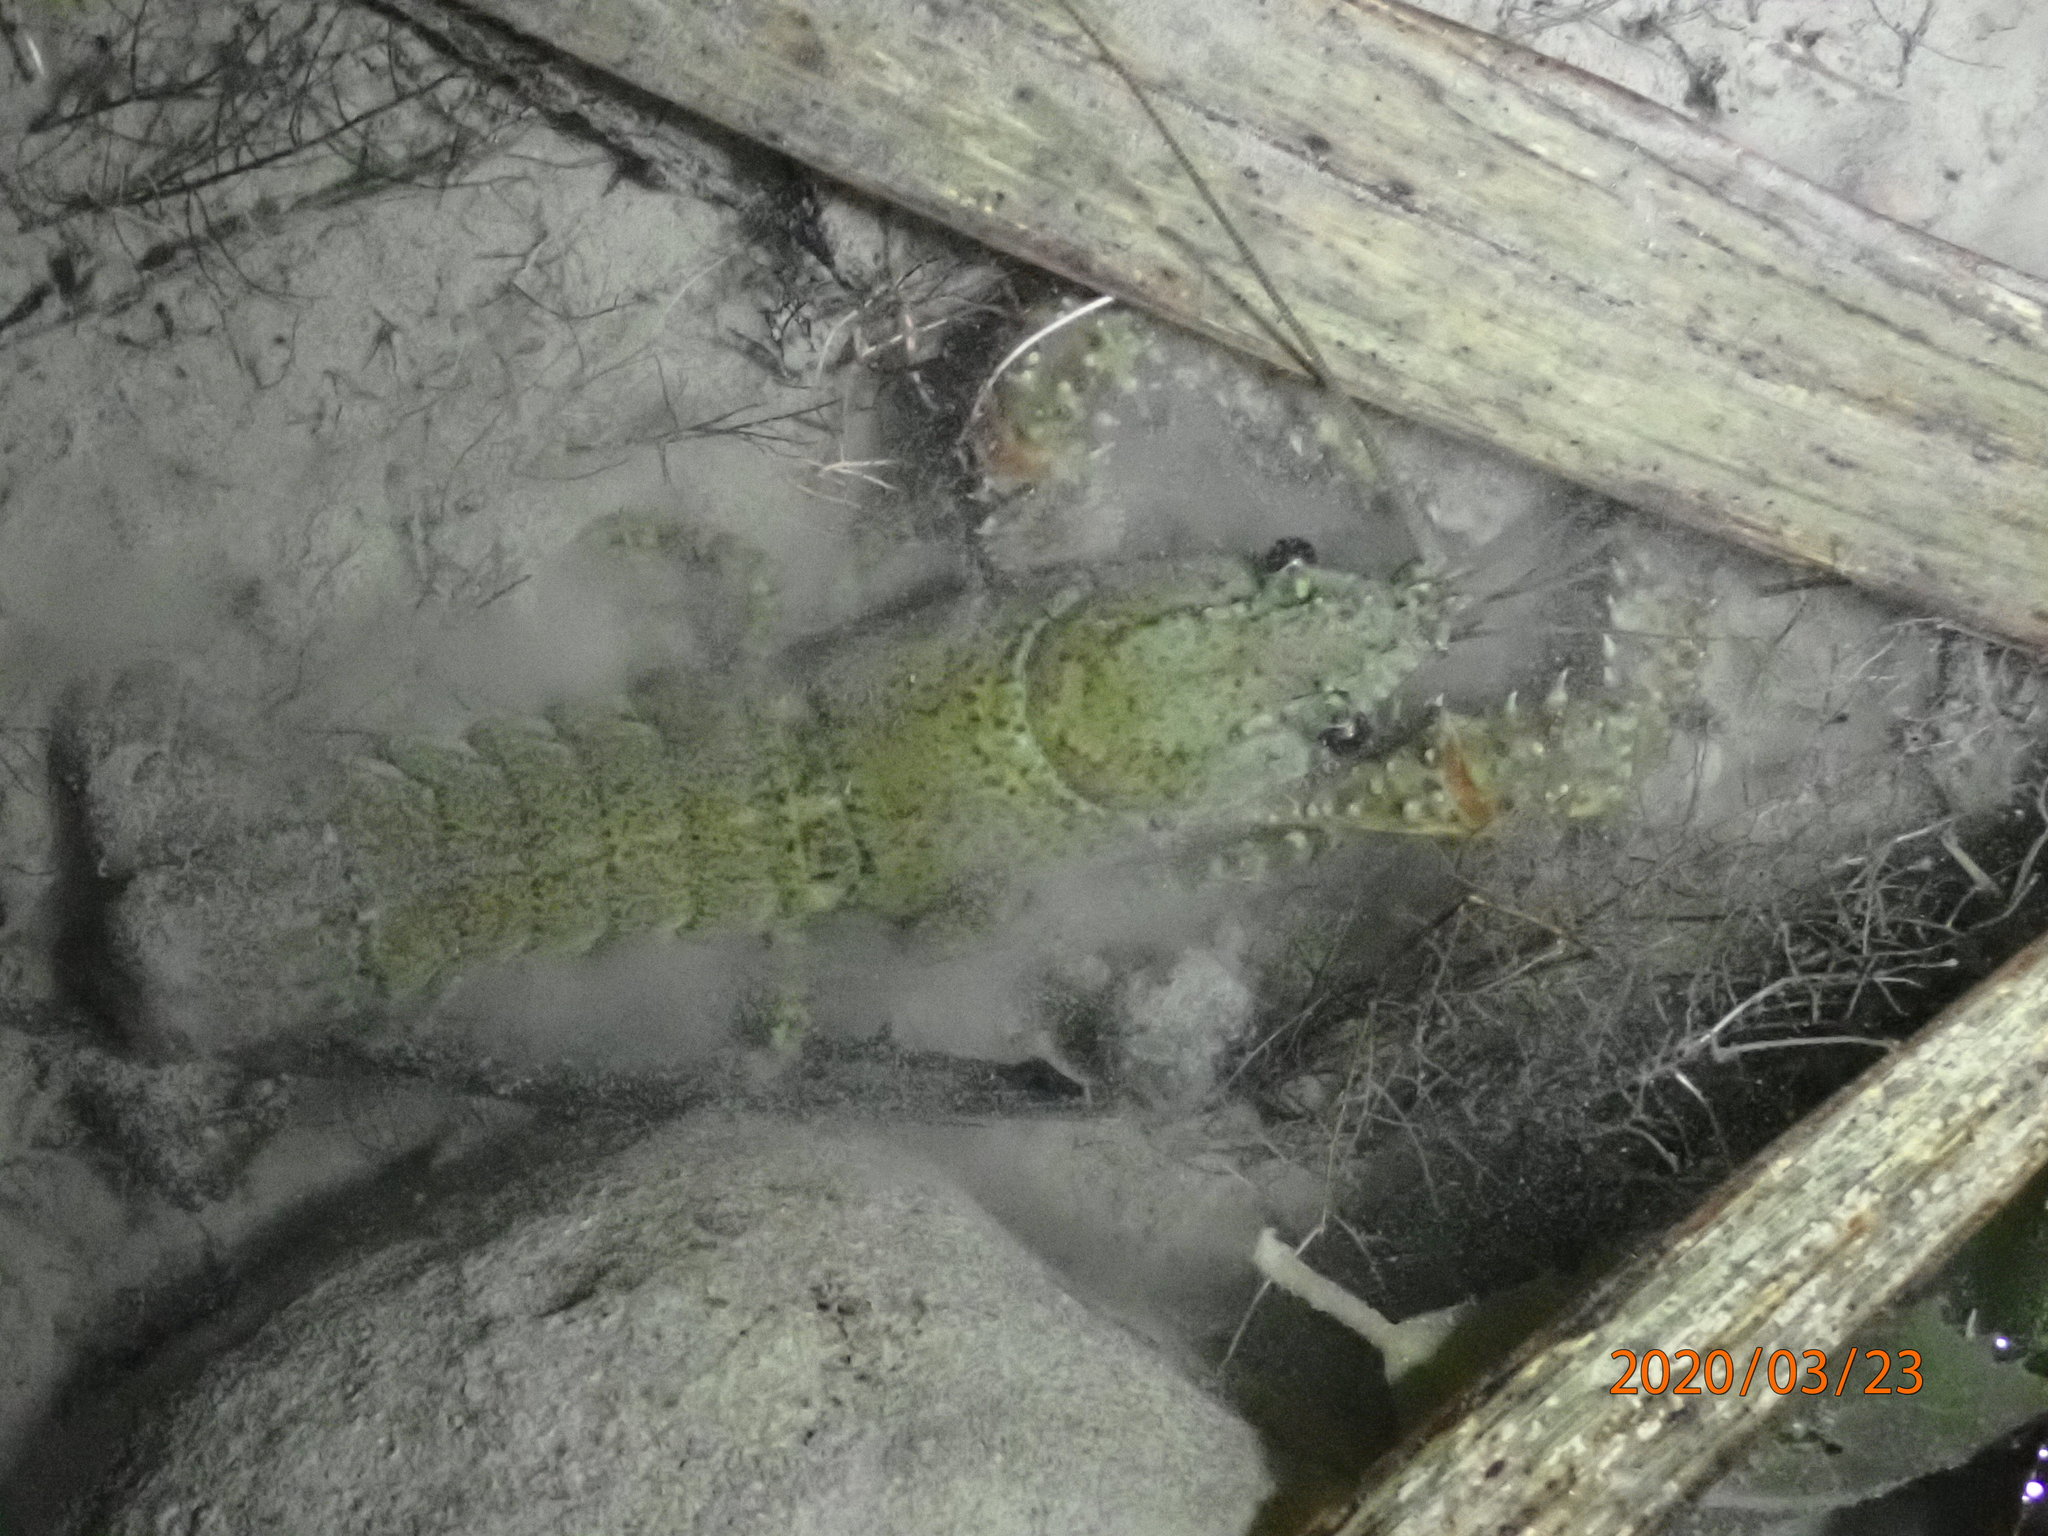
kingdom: Animalia
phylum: Arthropoda
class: Malacostraca
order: Decapoda
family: Parastacidae
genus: Paranephrops
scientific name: Paranephrops planifrons
